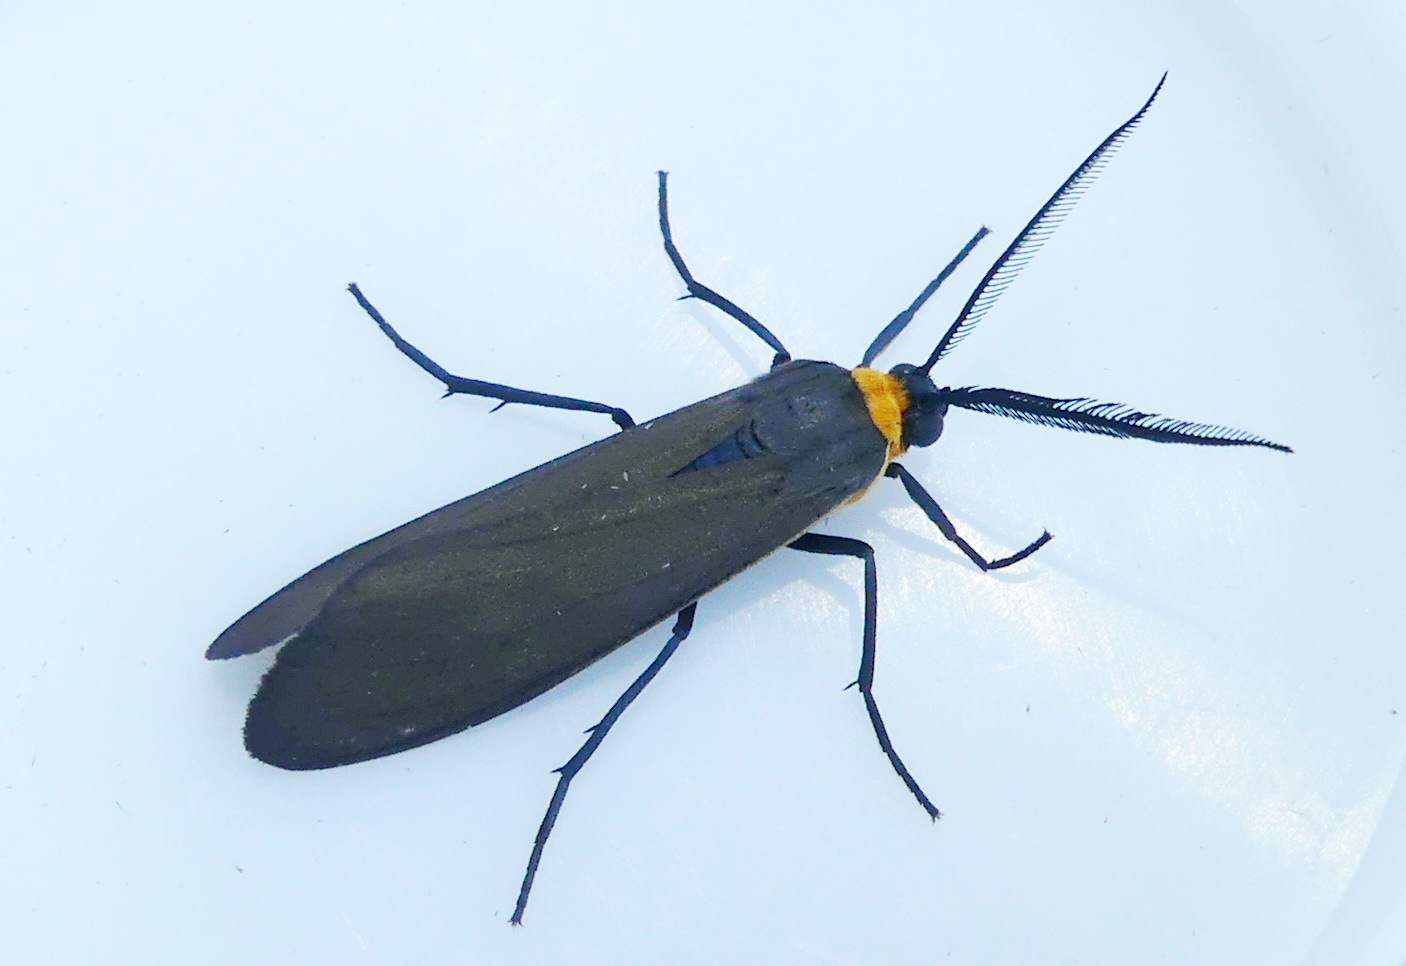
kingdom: Animalia
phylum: Arthropoda
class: Insecta
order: Lepidoptera
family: Erebidae
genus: Cisseps
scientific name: Cisseps fulvicollis
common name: Yellow-collared scape moth
